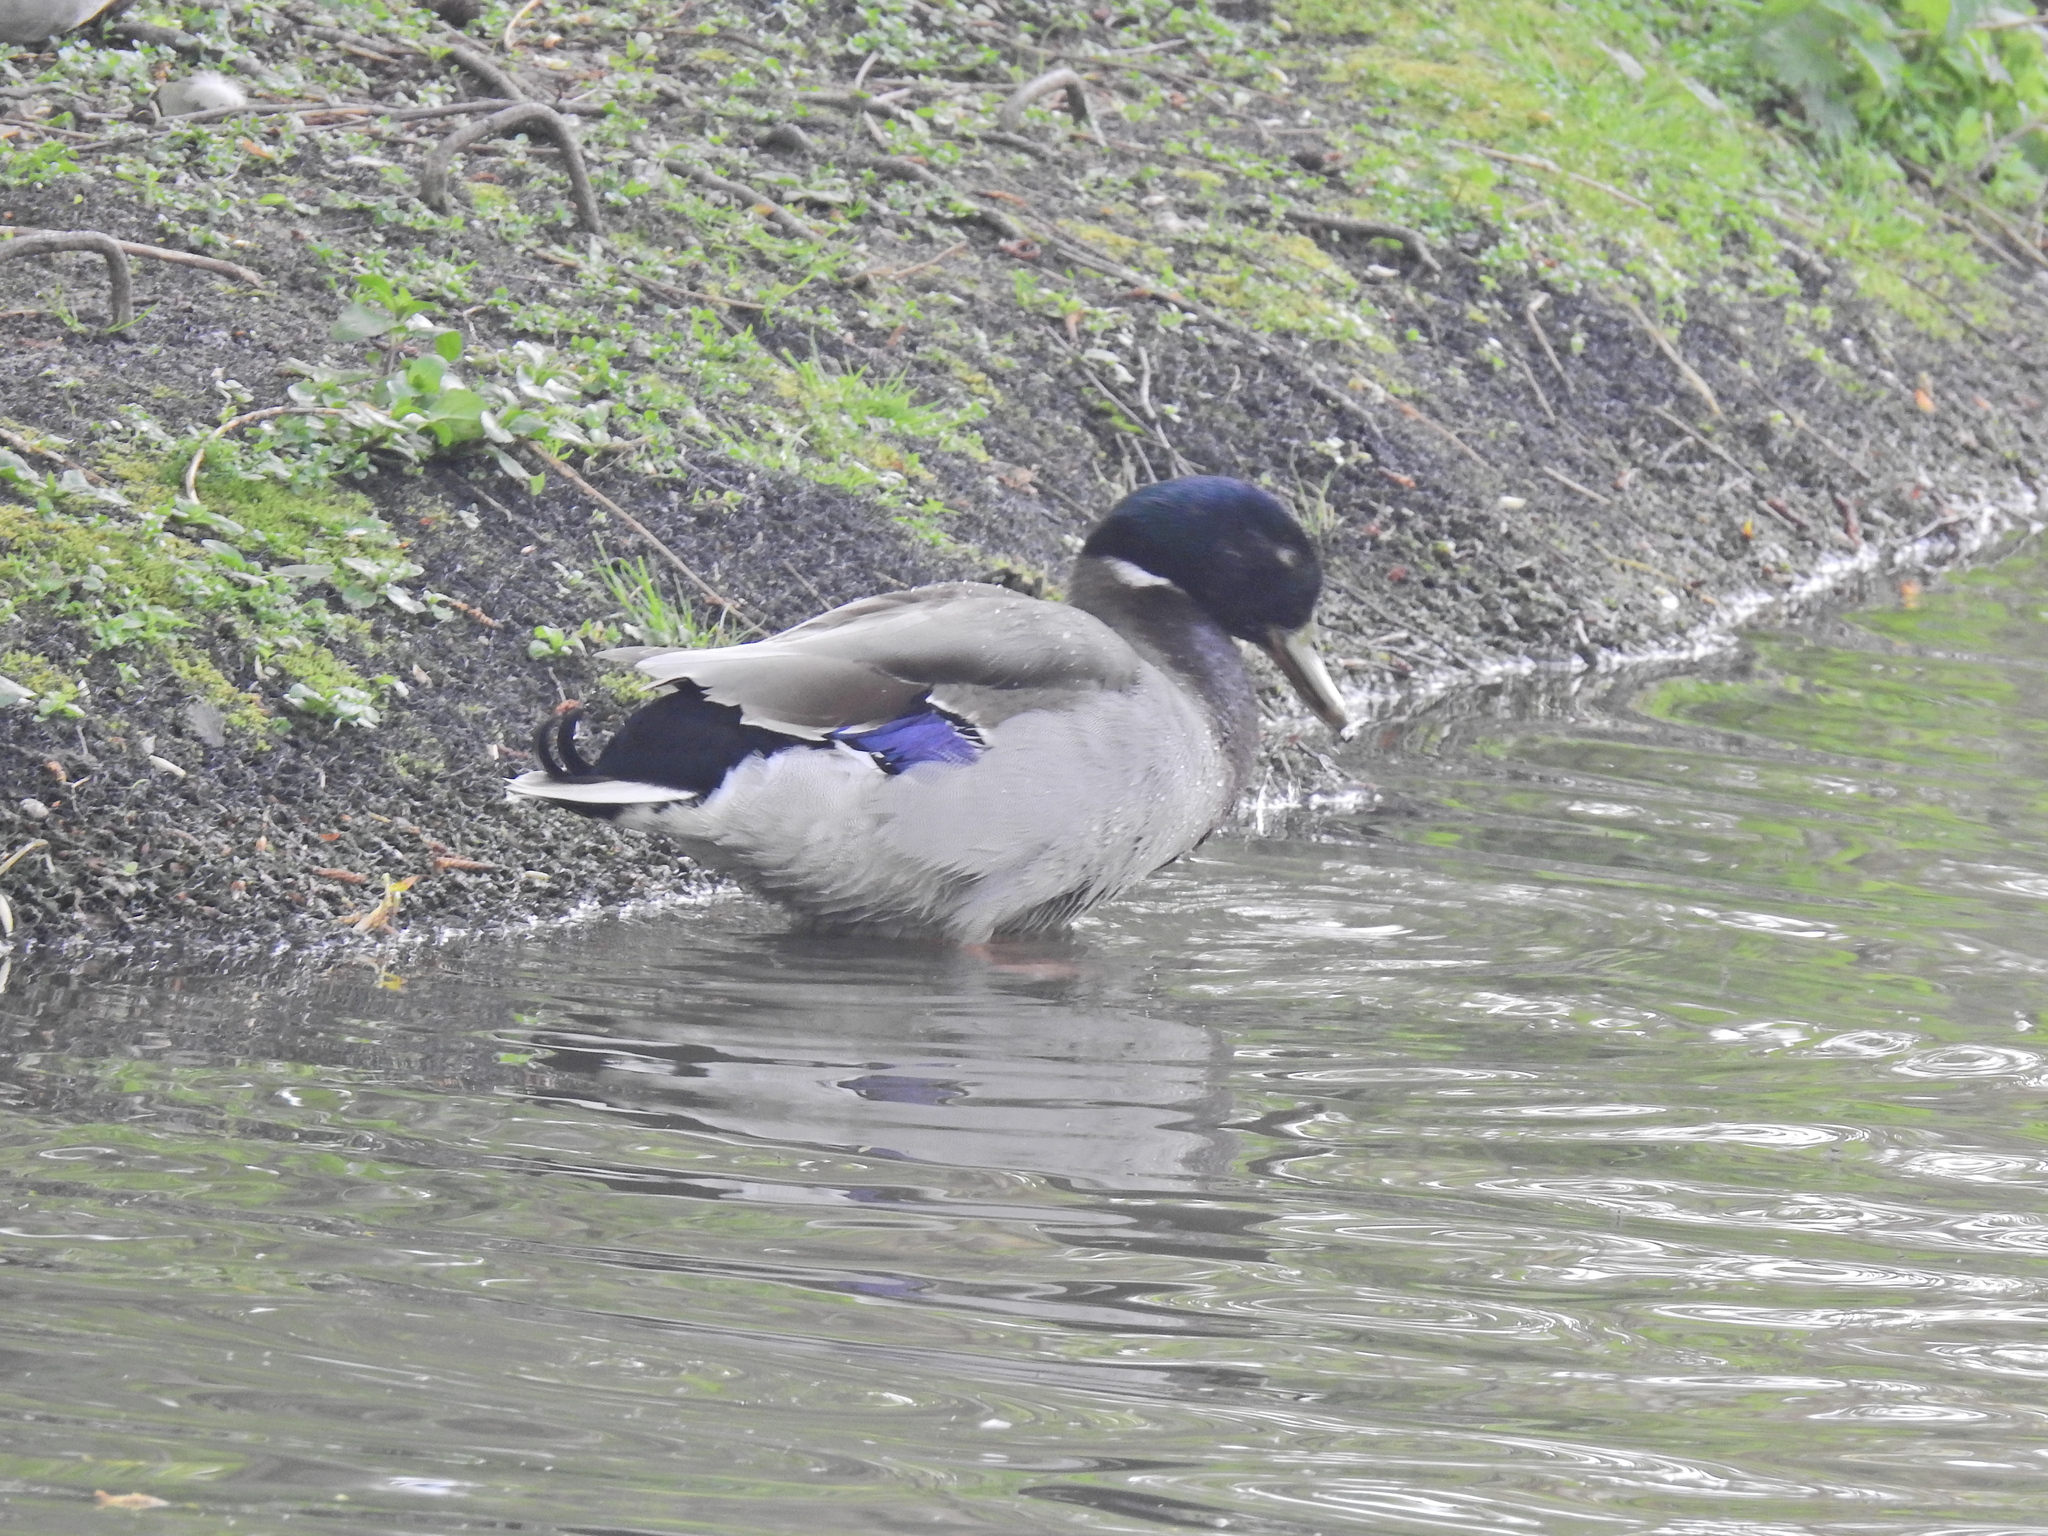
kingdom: Animalia
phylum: Chordata
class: Aves
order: Anseriformes
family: Anatidae
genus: Anas
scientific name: Anas platyrhynchos
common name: Mallard
